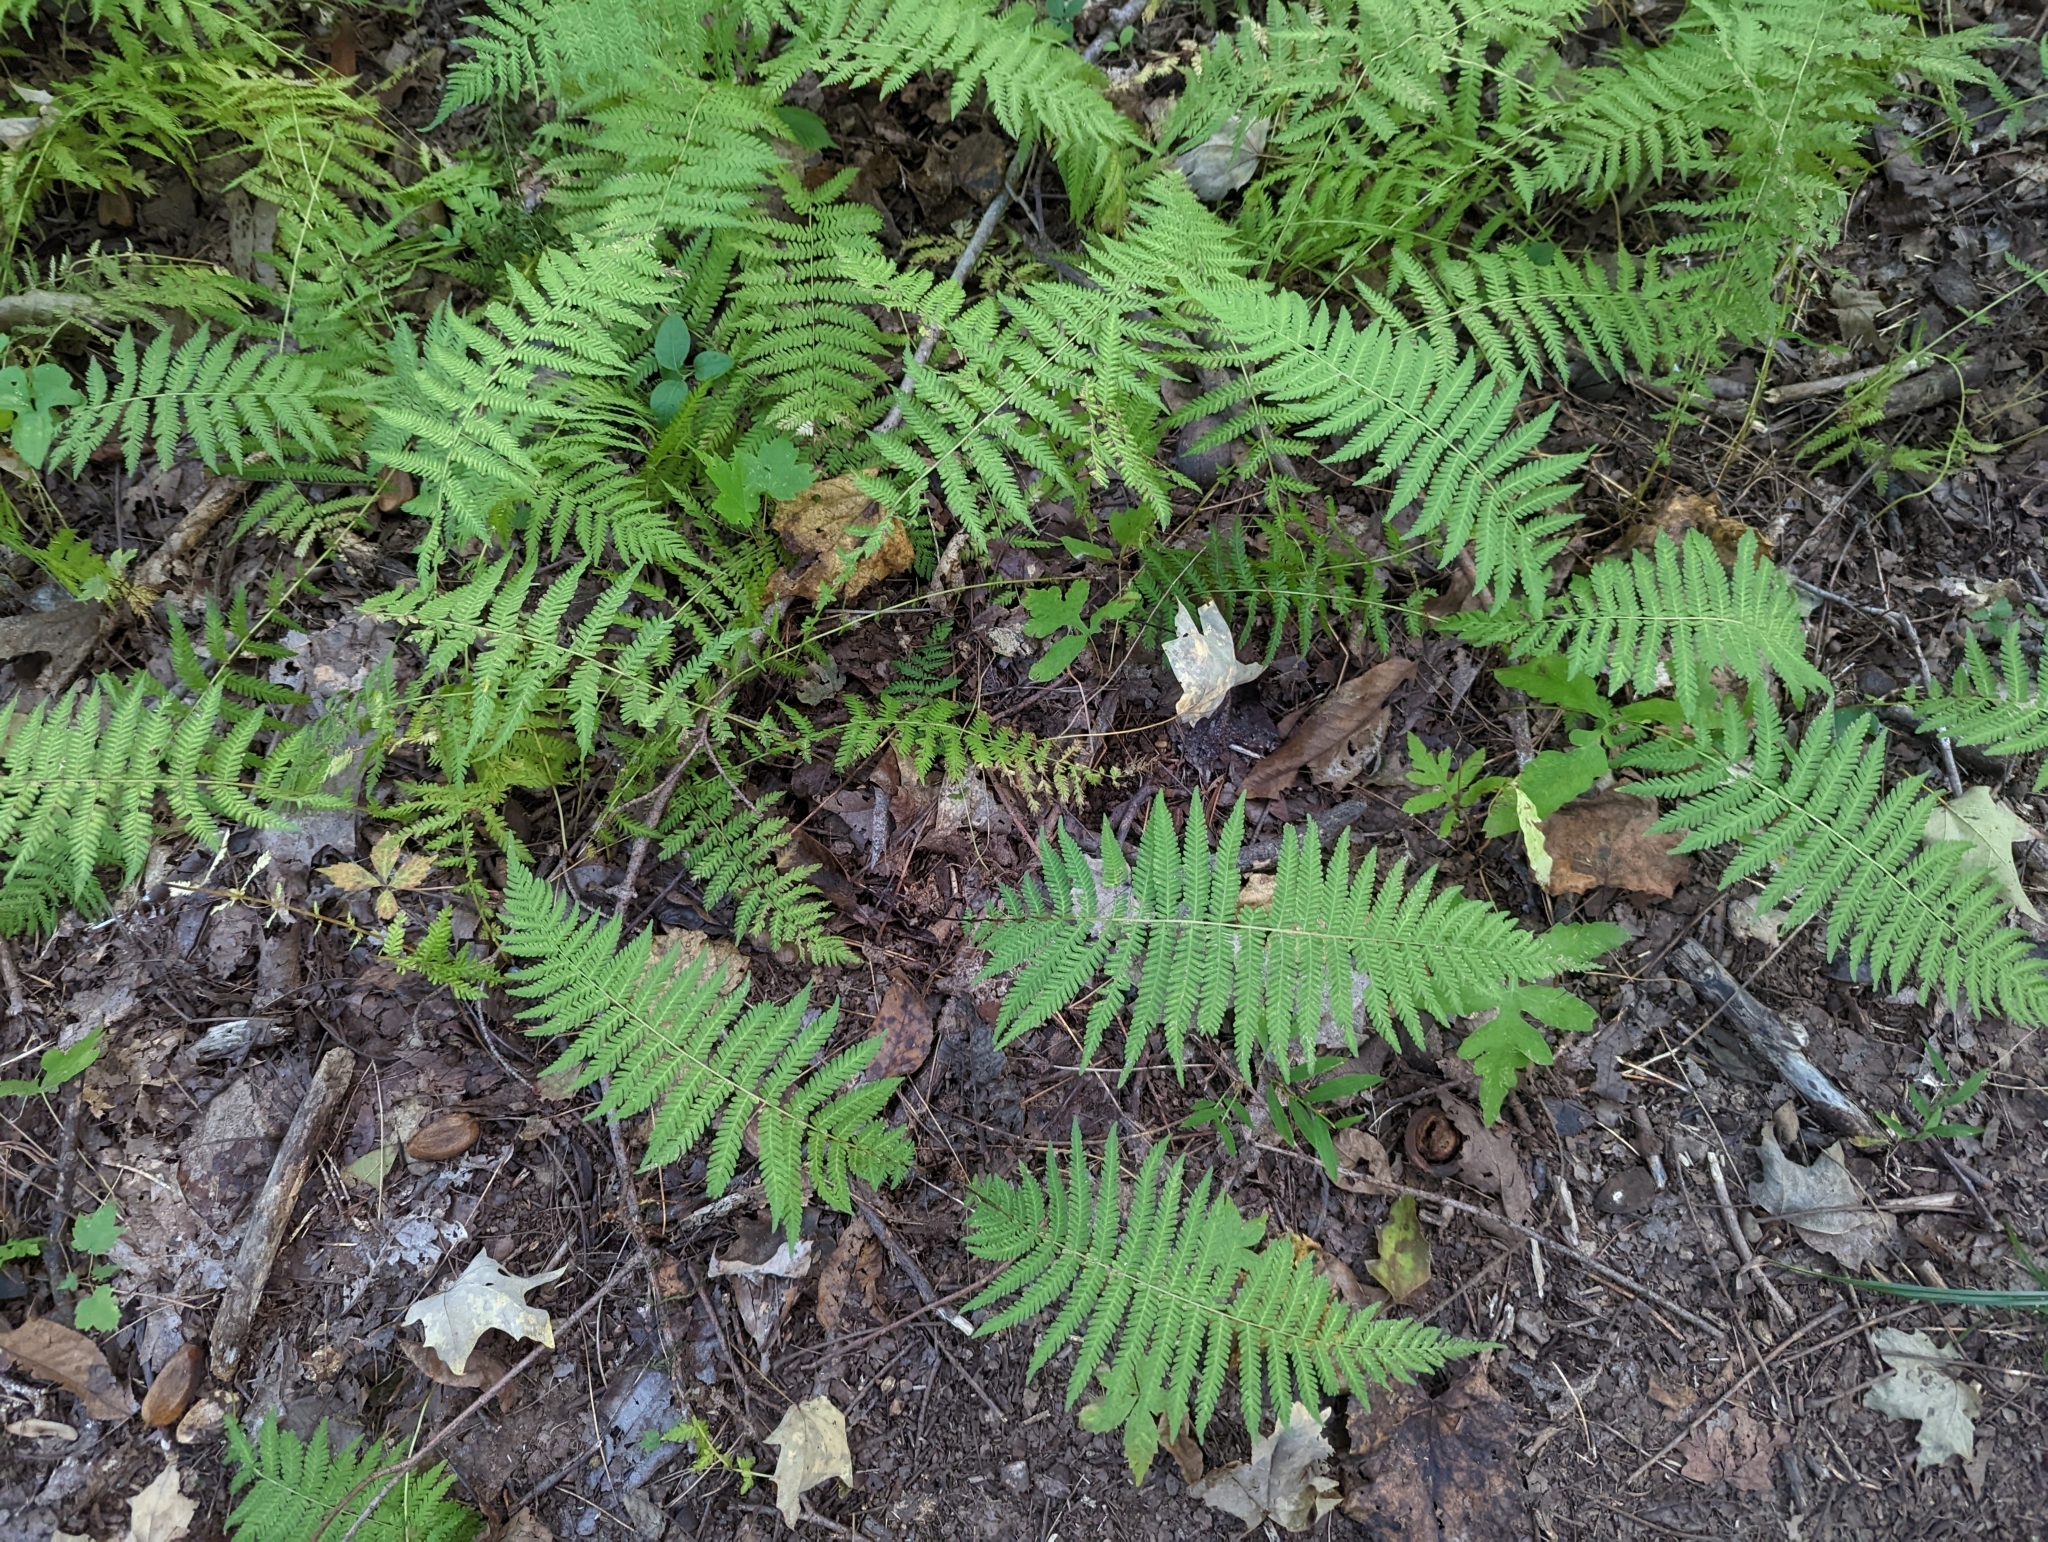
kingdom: Plantae
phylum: Tracheophyta
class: Polypodiopsida
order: Polypodiales
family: Thelypteridaceae
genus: Amauropelta
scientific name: Amauropelta noveboracensis
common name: New york fern
